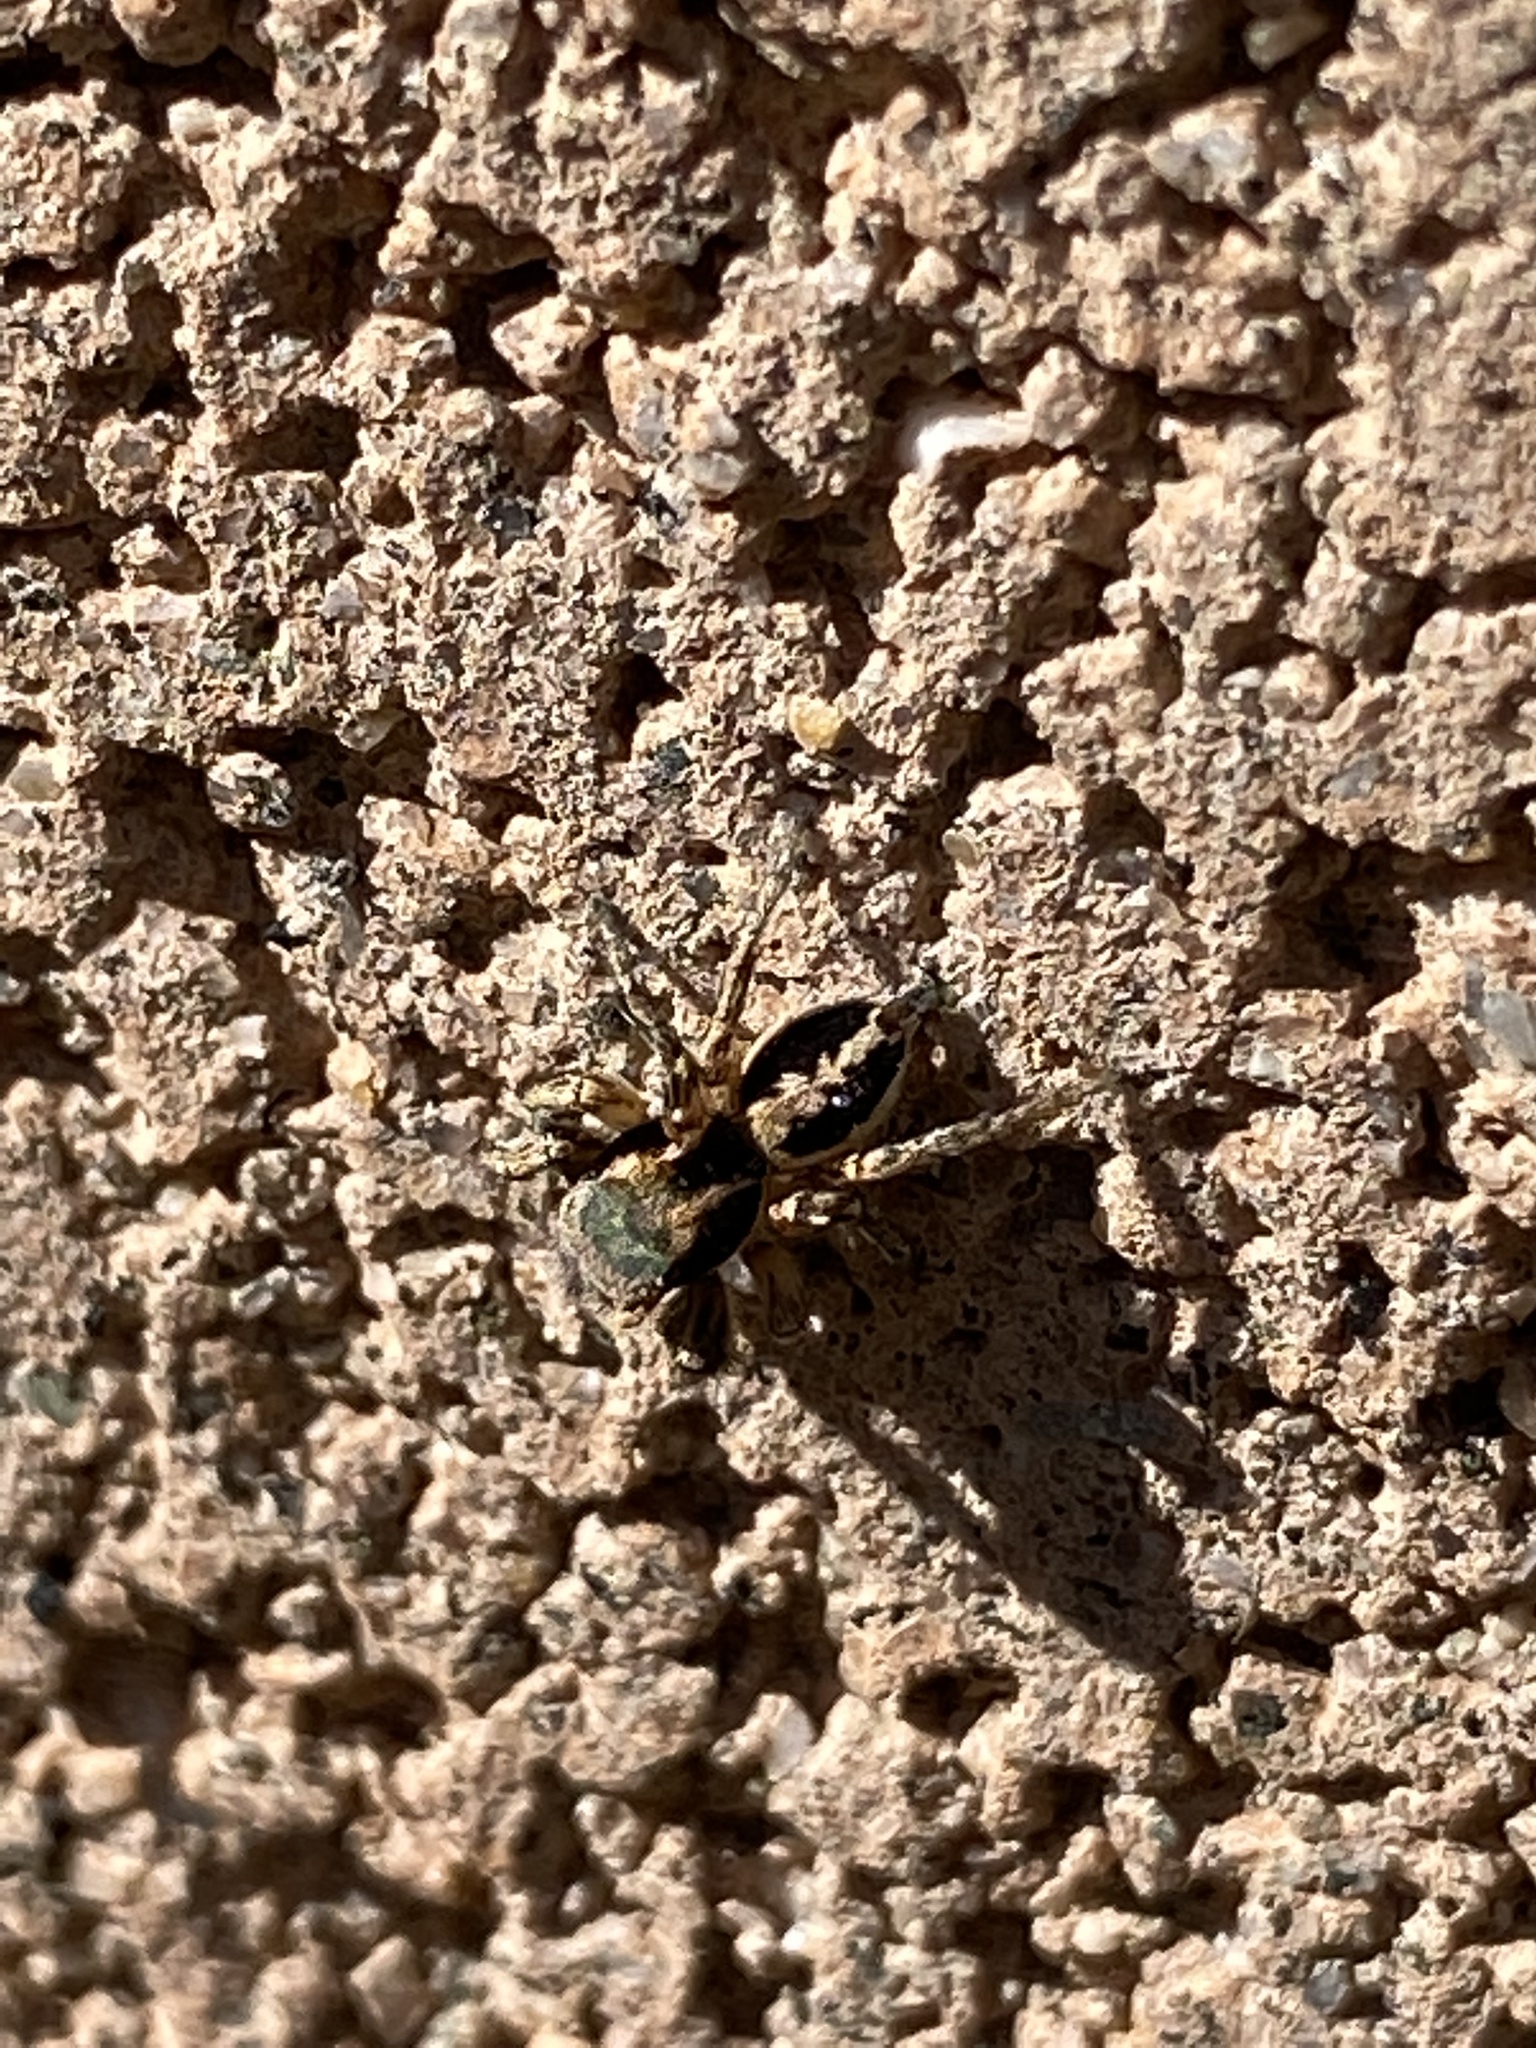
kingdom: Animalia
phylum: Arthropoda
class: Arachnida
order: Araneae
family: Salticidae
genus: Habronattus
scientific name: Habronattus pyrrithrix
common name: Jumping spider
